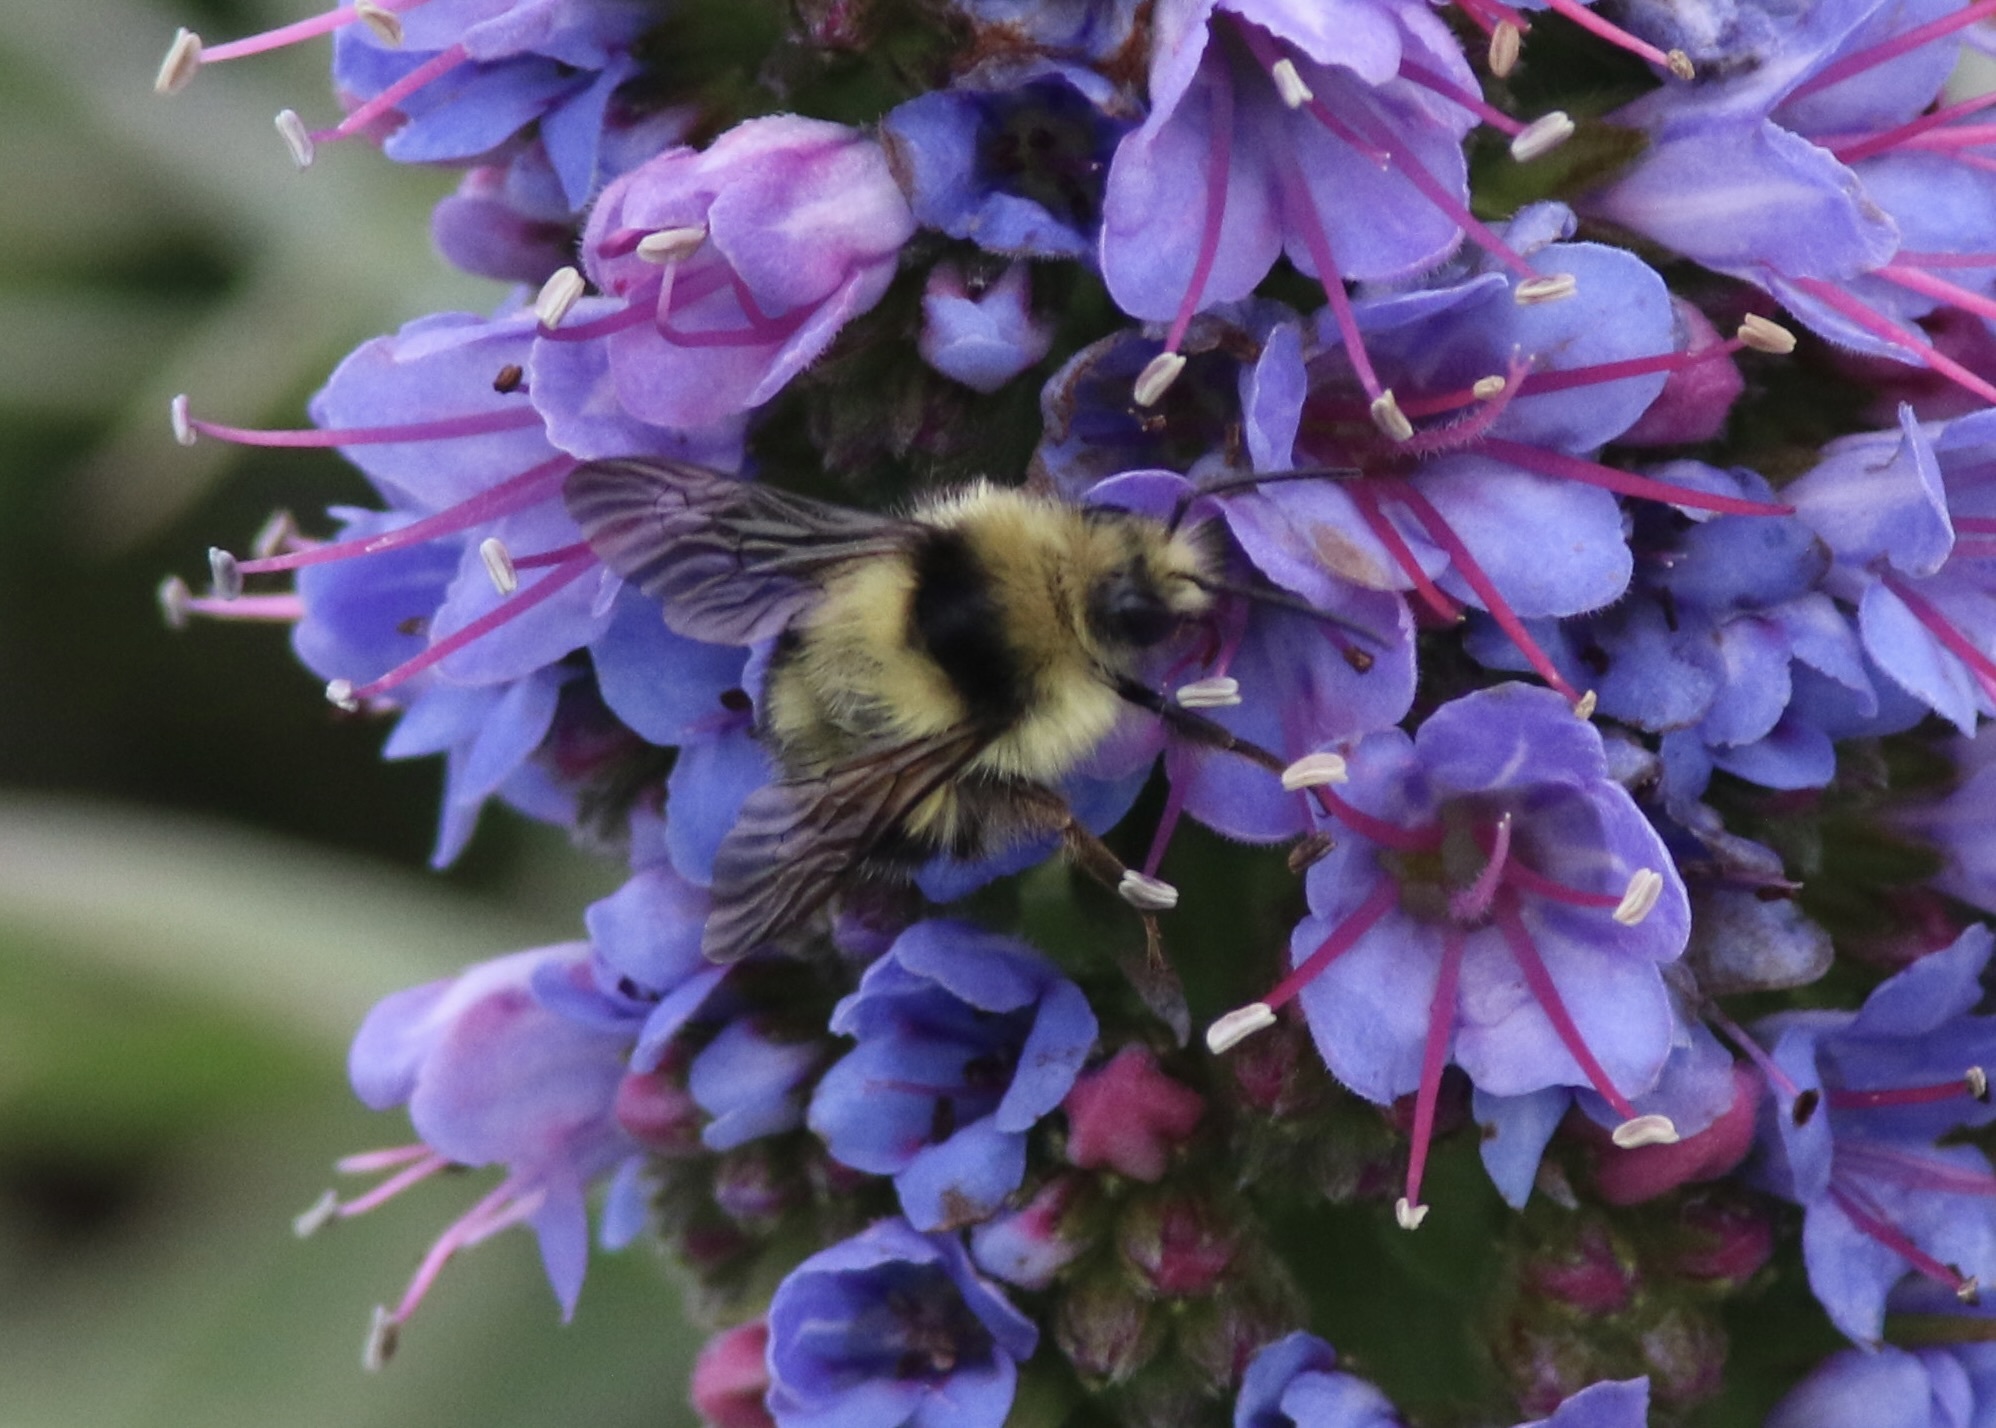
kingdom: Animalia
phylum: Arthropoda
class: Insecta
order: Hymenoptera
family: Apidae
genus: Bombus
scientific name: Bombus melanopygus
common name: Black tail bumble bee
